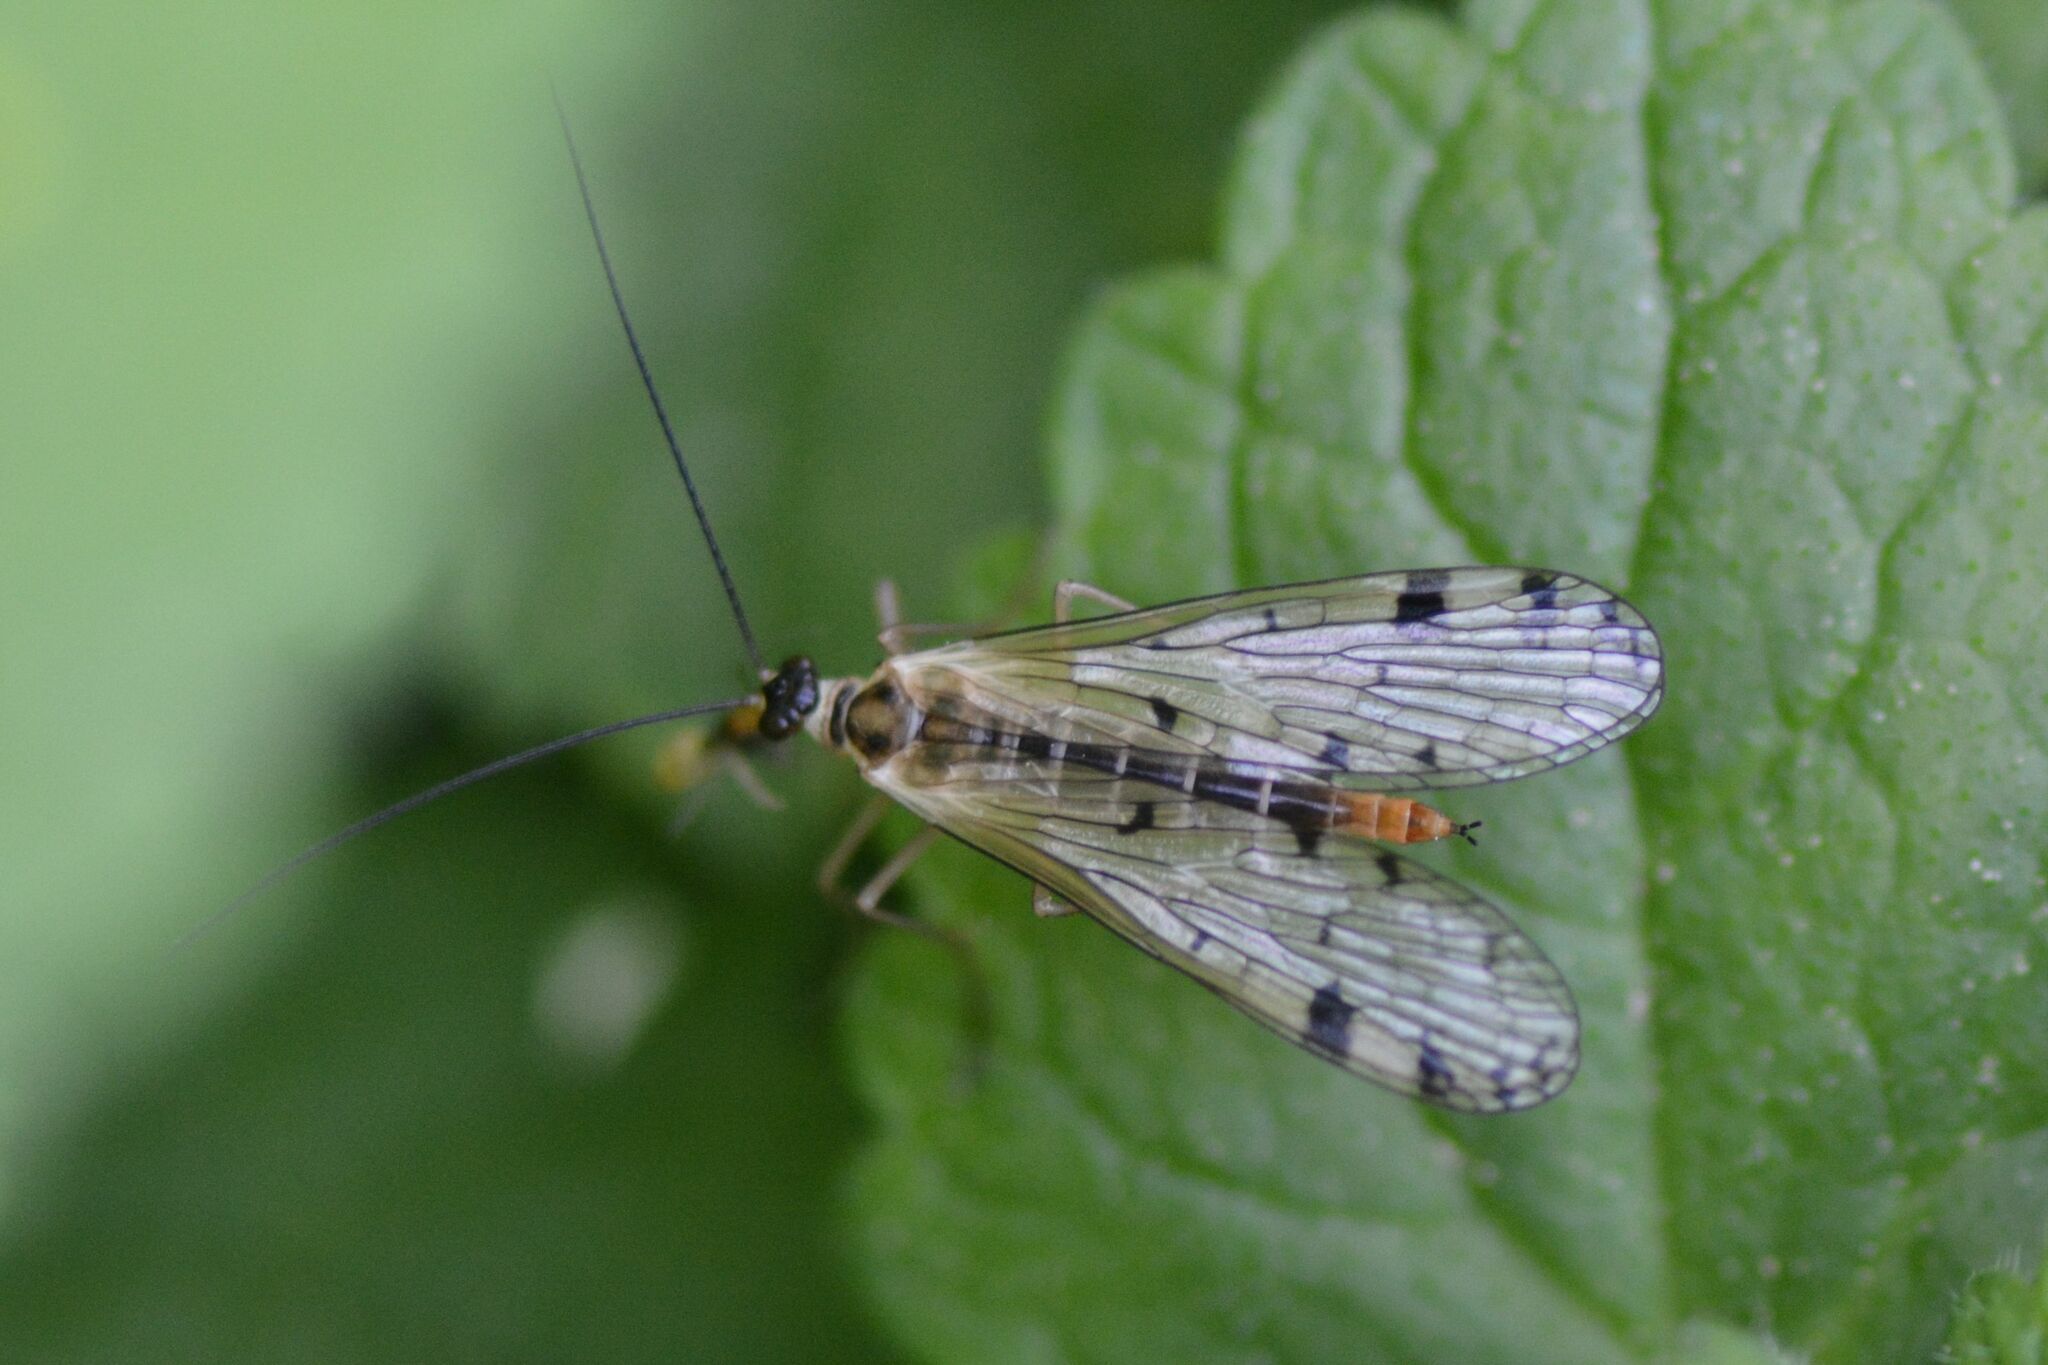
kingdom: Animalia
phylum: Arthropoda
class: Insecta
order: Mecoptera
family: Panorpidae
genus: Panorpa
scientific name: Panorpa alpina
